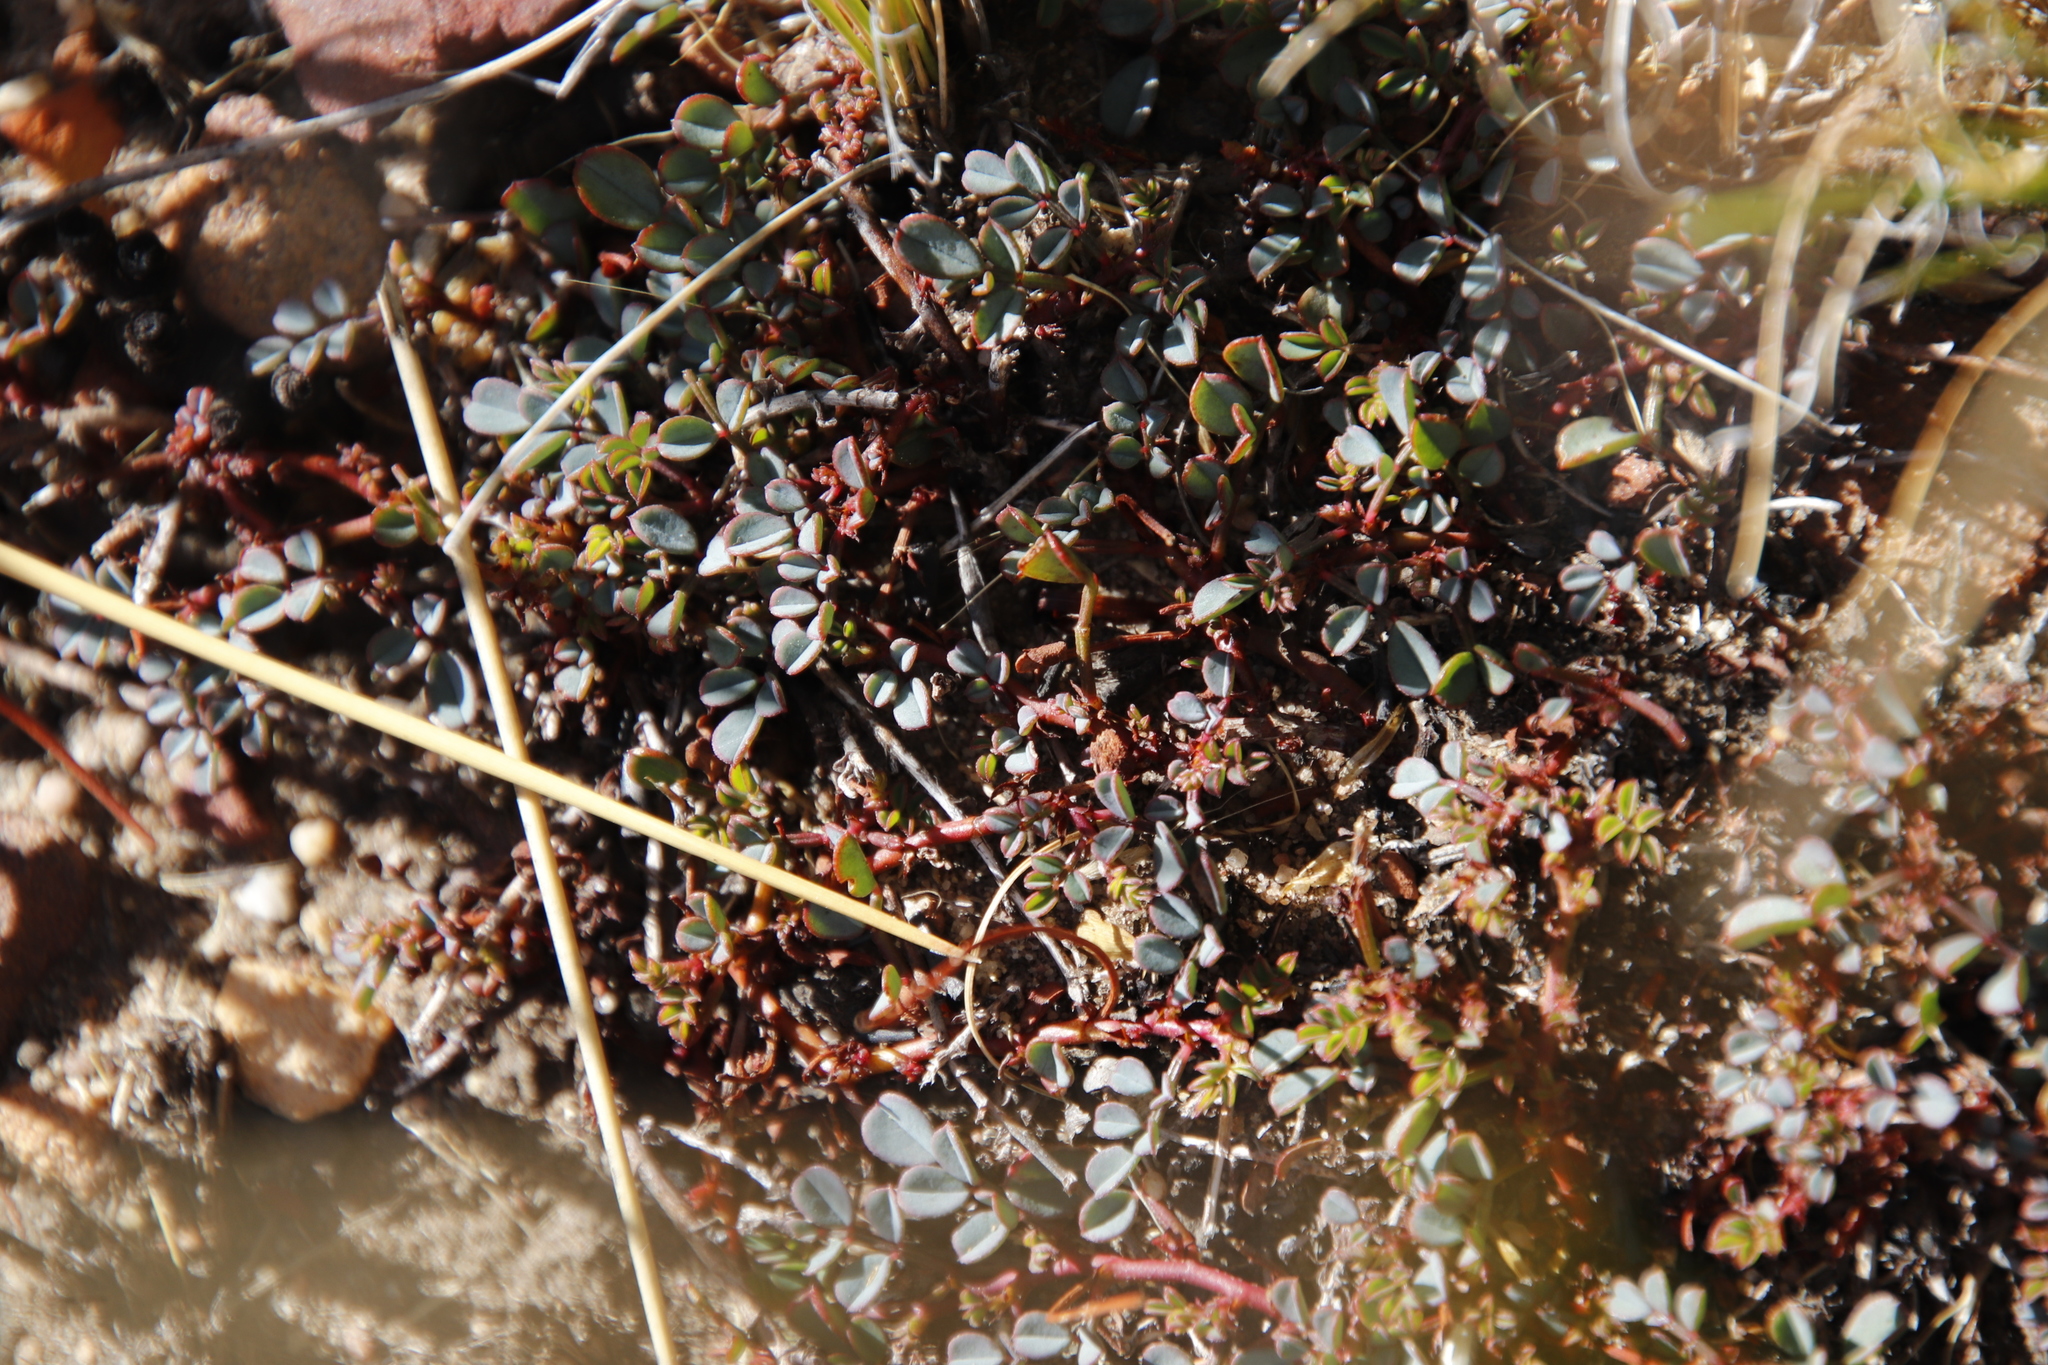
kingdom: Plantae
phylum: Tracheophyta
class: Magnoliopsida
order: Fabales
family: Fabaceae
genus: Indigofera
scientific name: Indigofera humifusa
